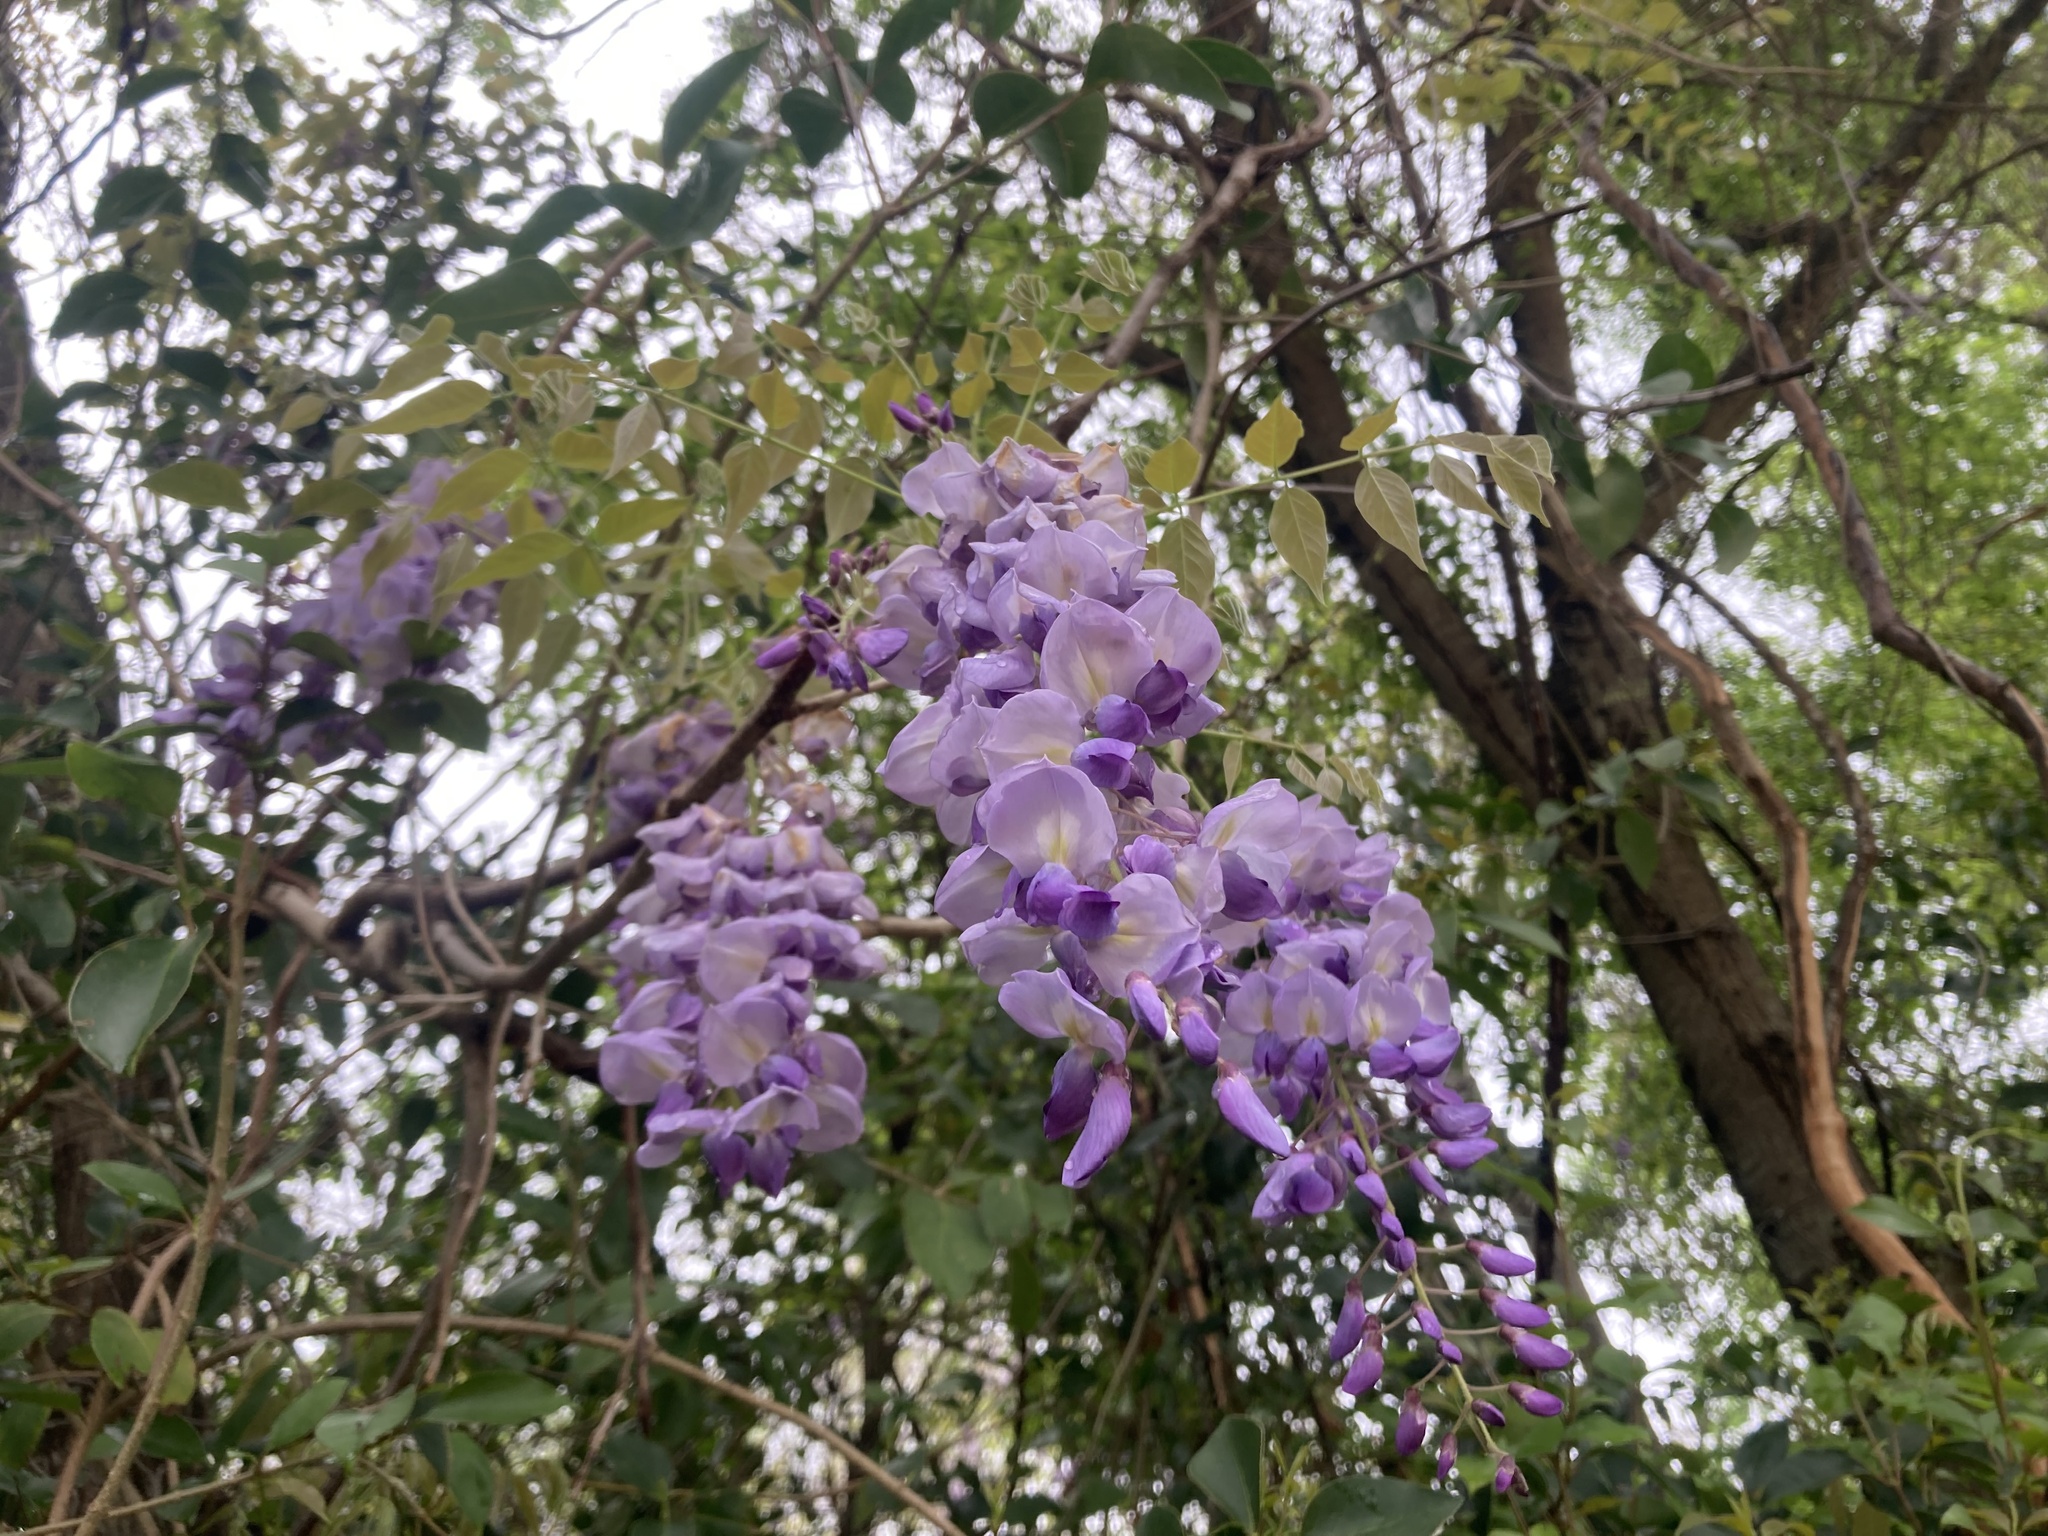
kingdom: Plantae
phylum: Tracheophyta
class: Magnoliopsida
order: Fabales
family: Fabaceae
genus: Wisteria
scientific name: Wisteria sinensis
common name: Chinese wisteria
